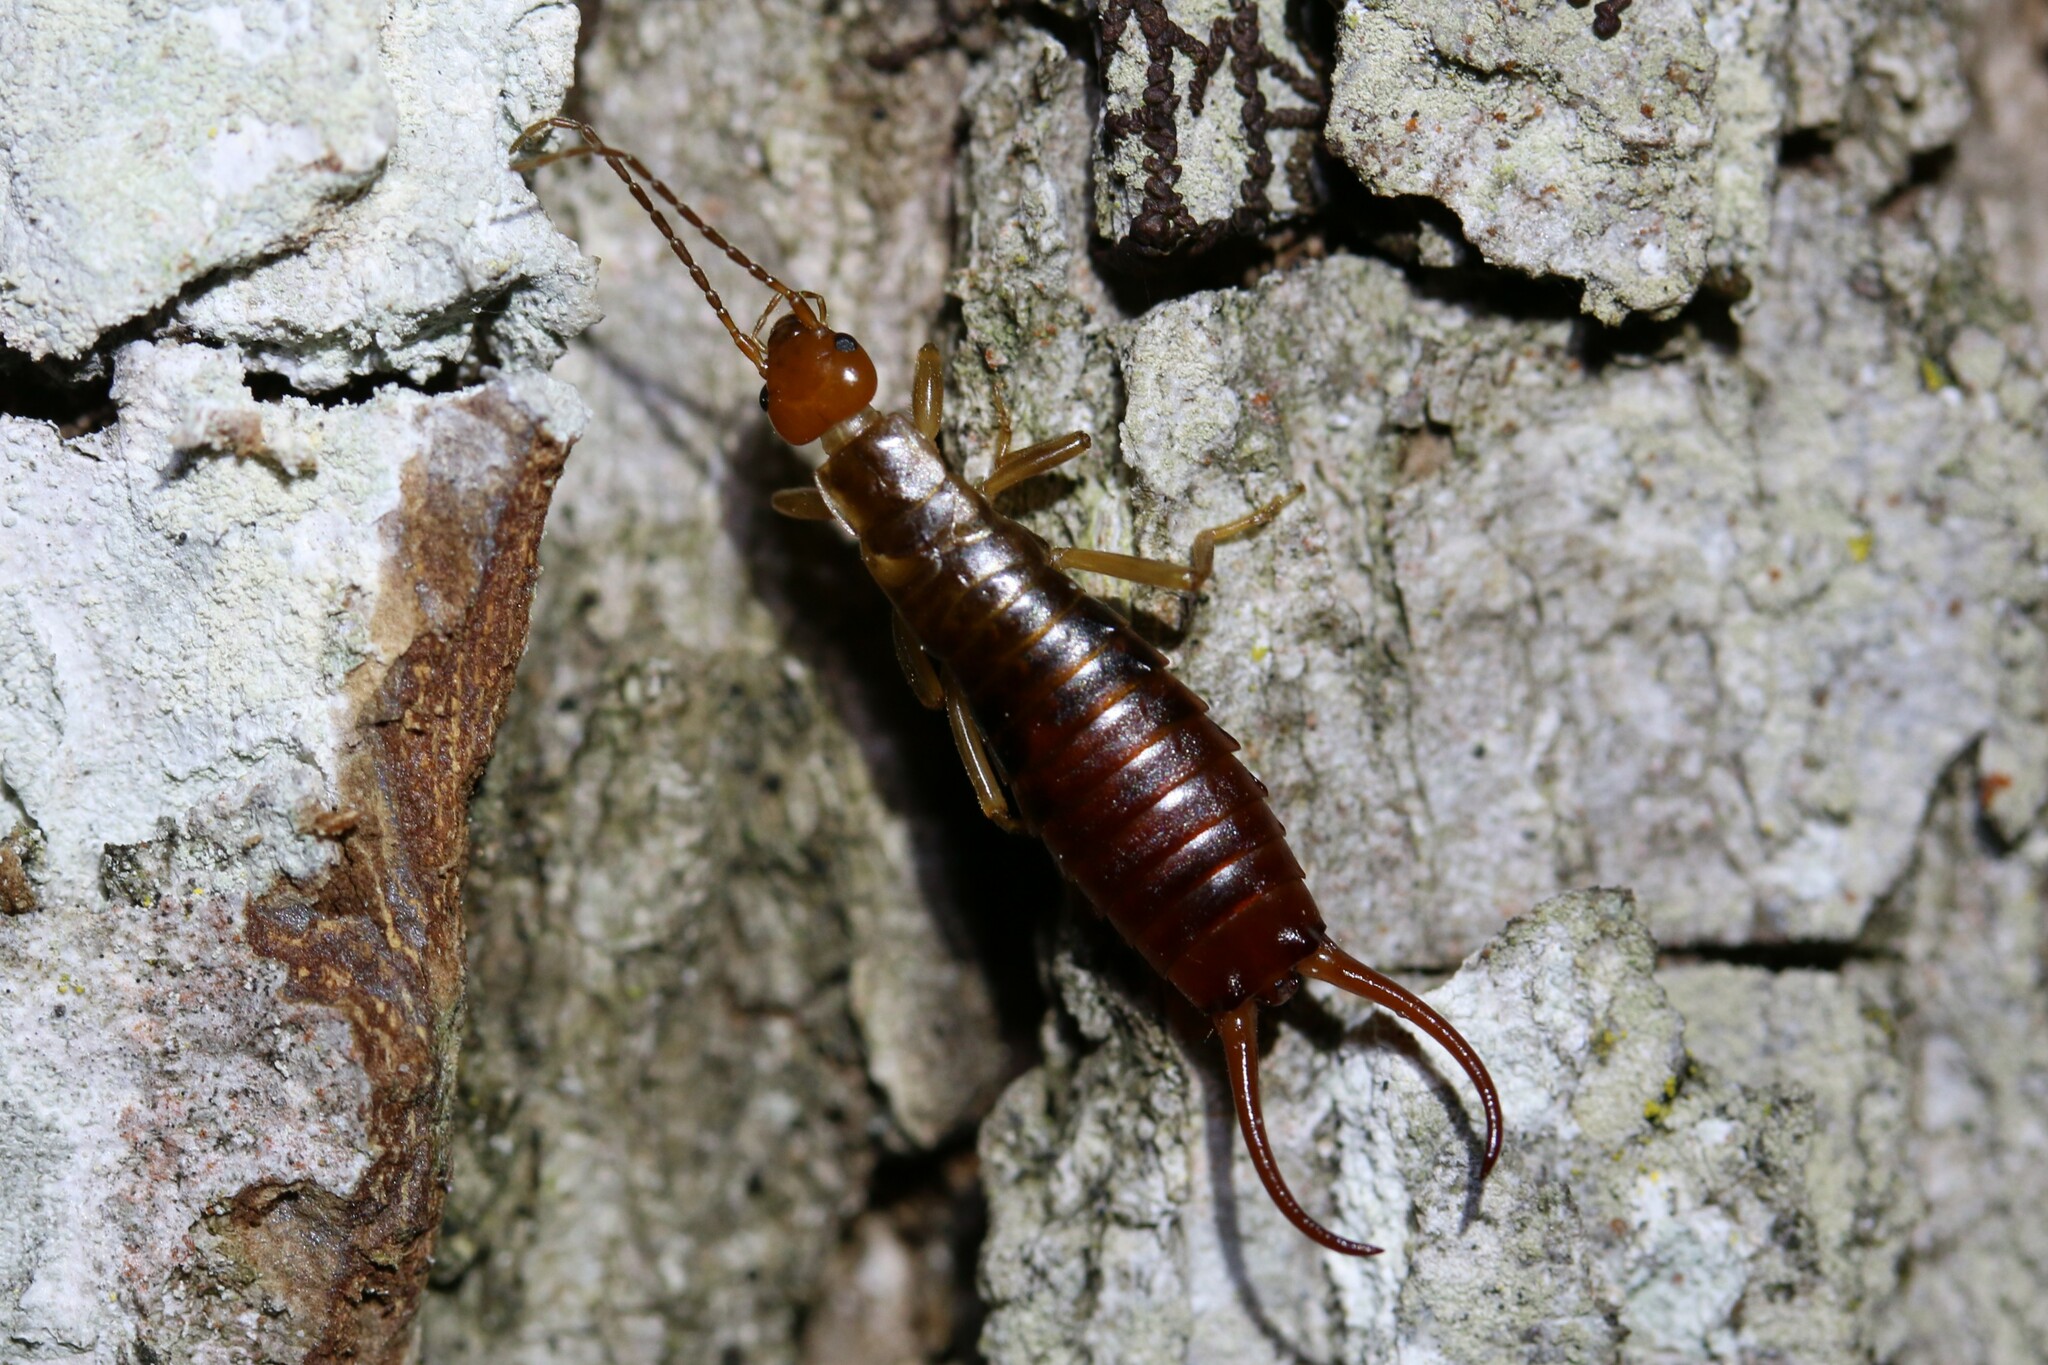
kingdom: Animalia
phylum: Arthropoda
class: Insecta
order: Dermaptera
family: Forficulidae
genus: Chelidurella
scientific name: Chelidurella acanthopygia
